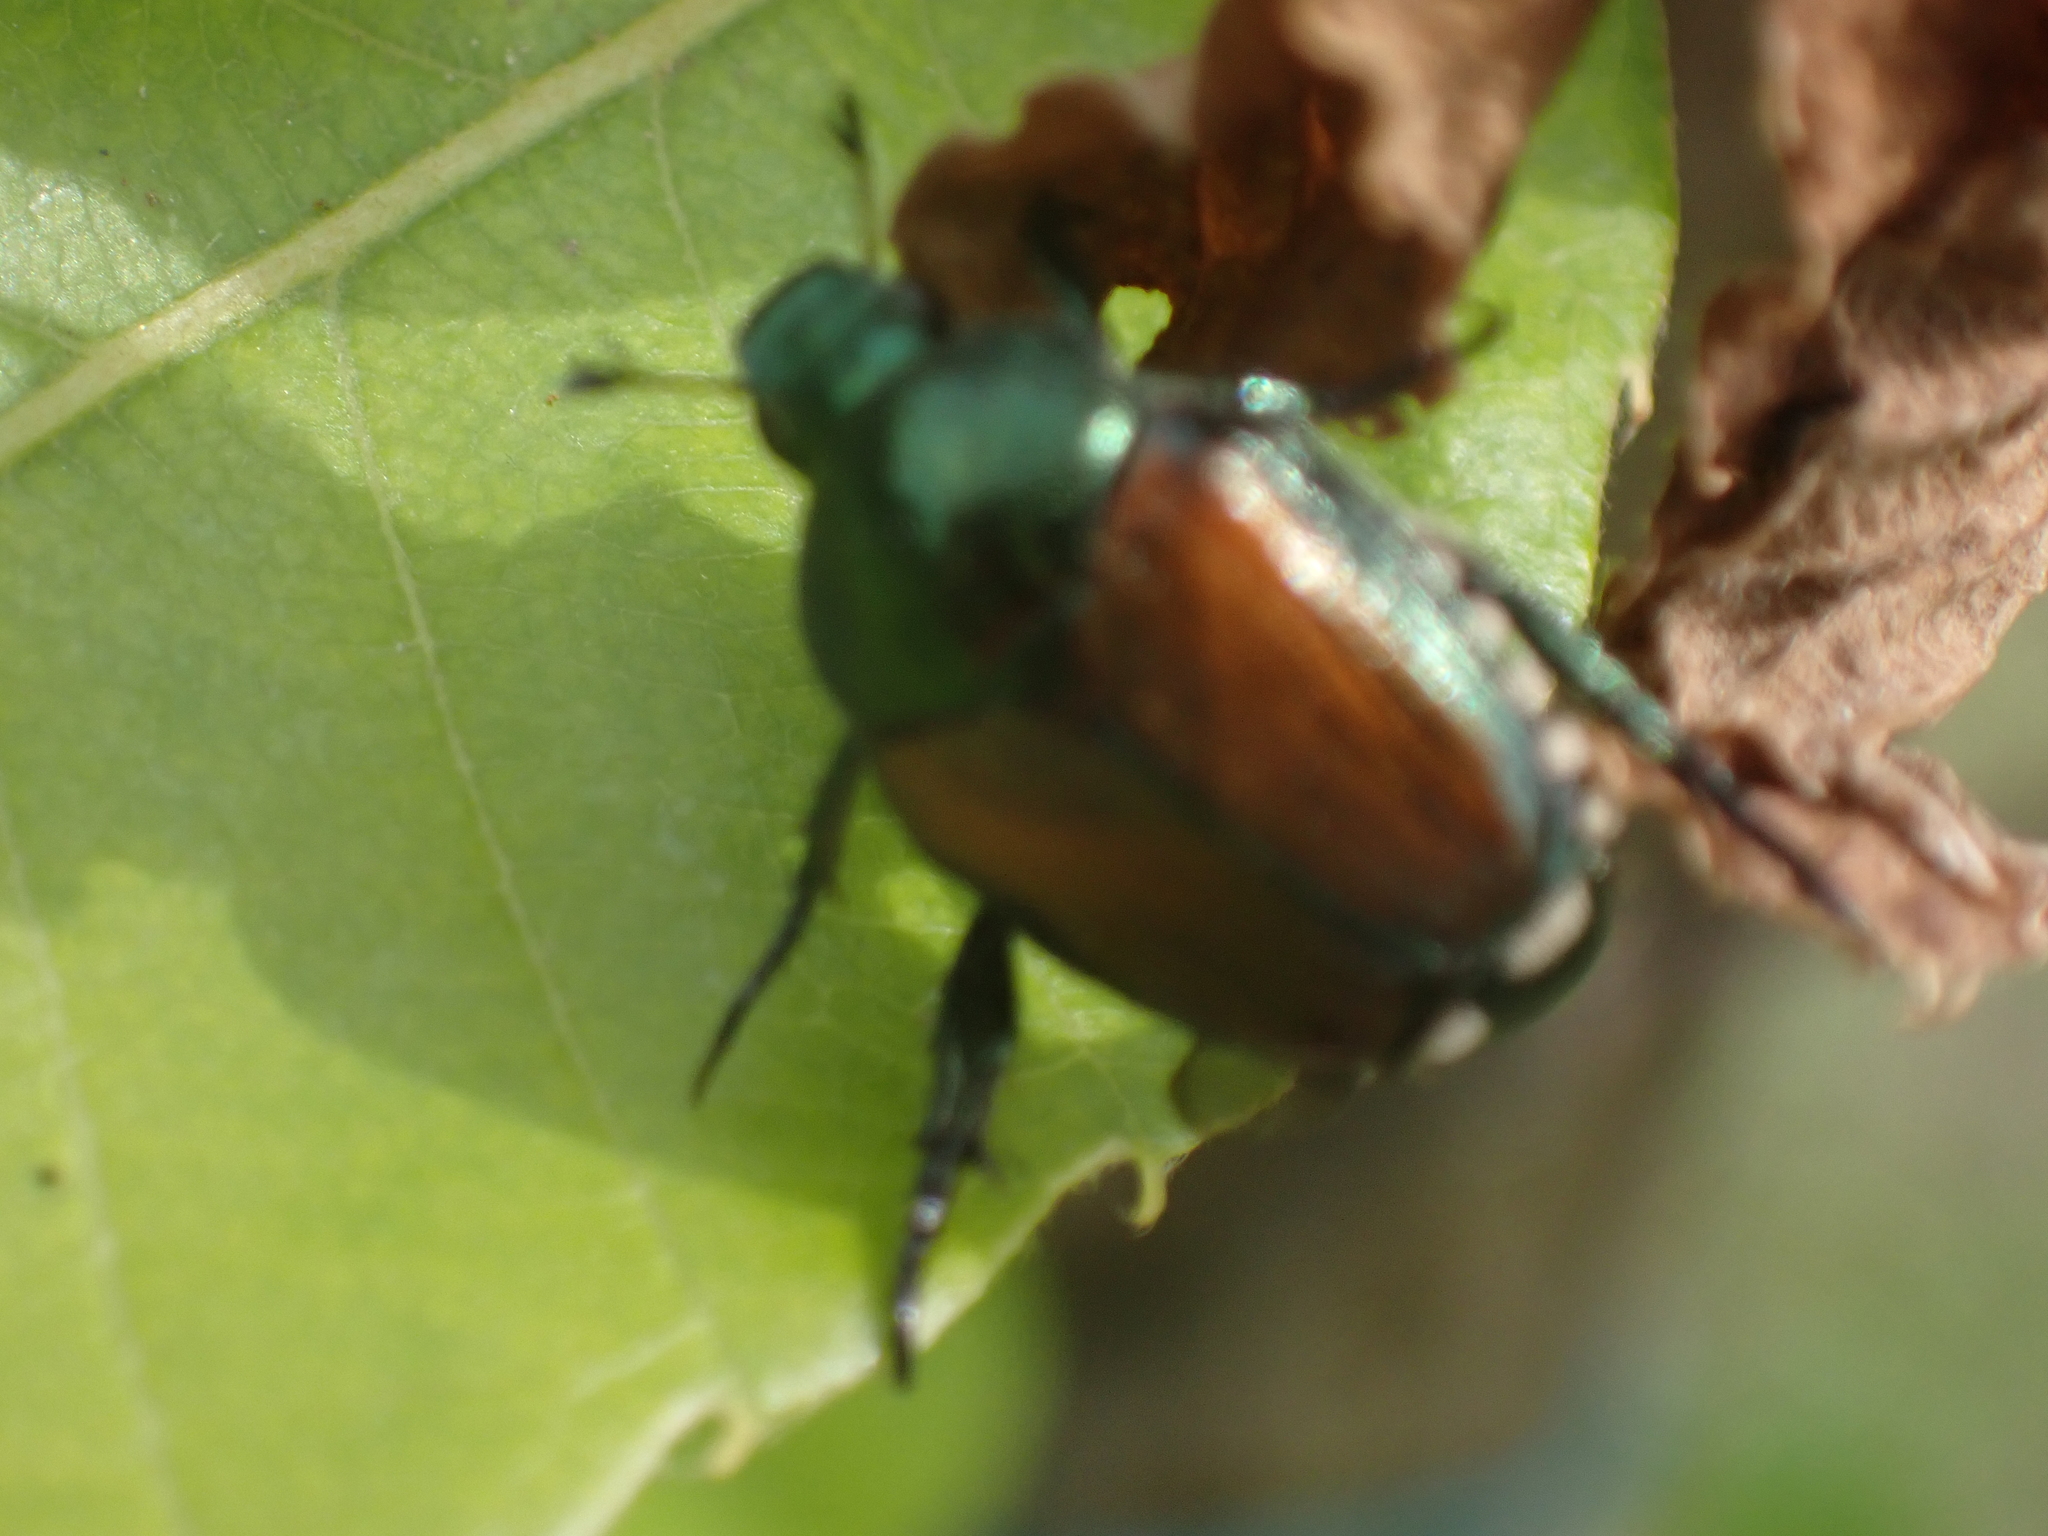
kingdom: Animalia
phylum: Arthropoda
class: Insecta
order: Coleoptera
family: Scarabaeidae
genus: Popillia
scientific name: Popillia japonica
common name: Japanese beetle
